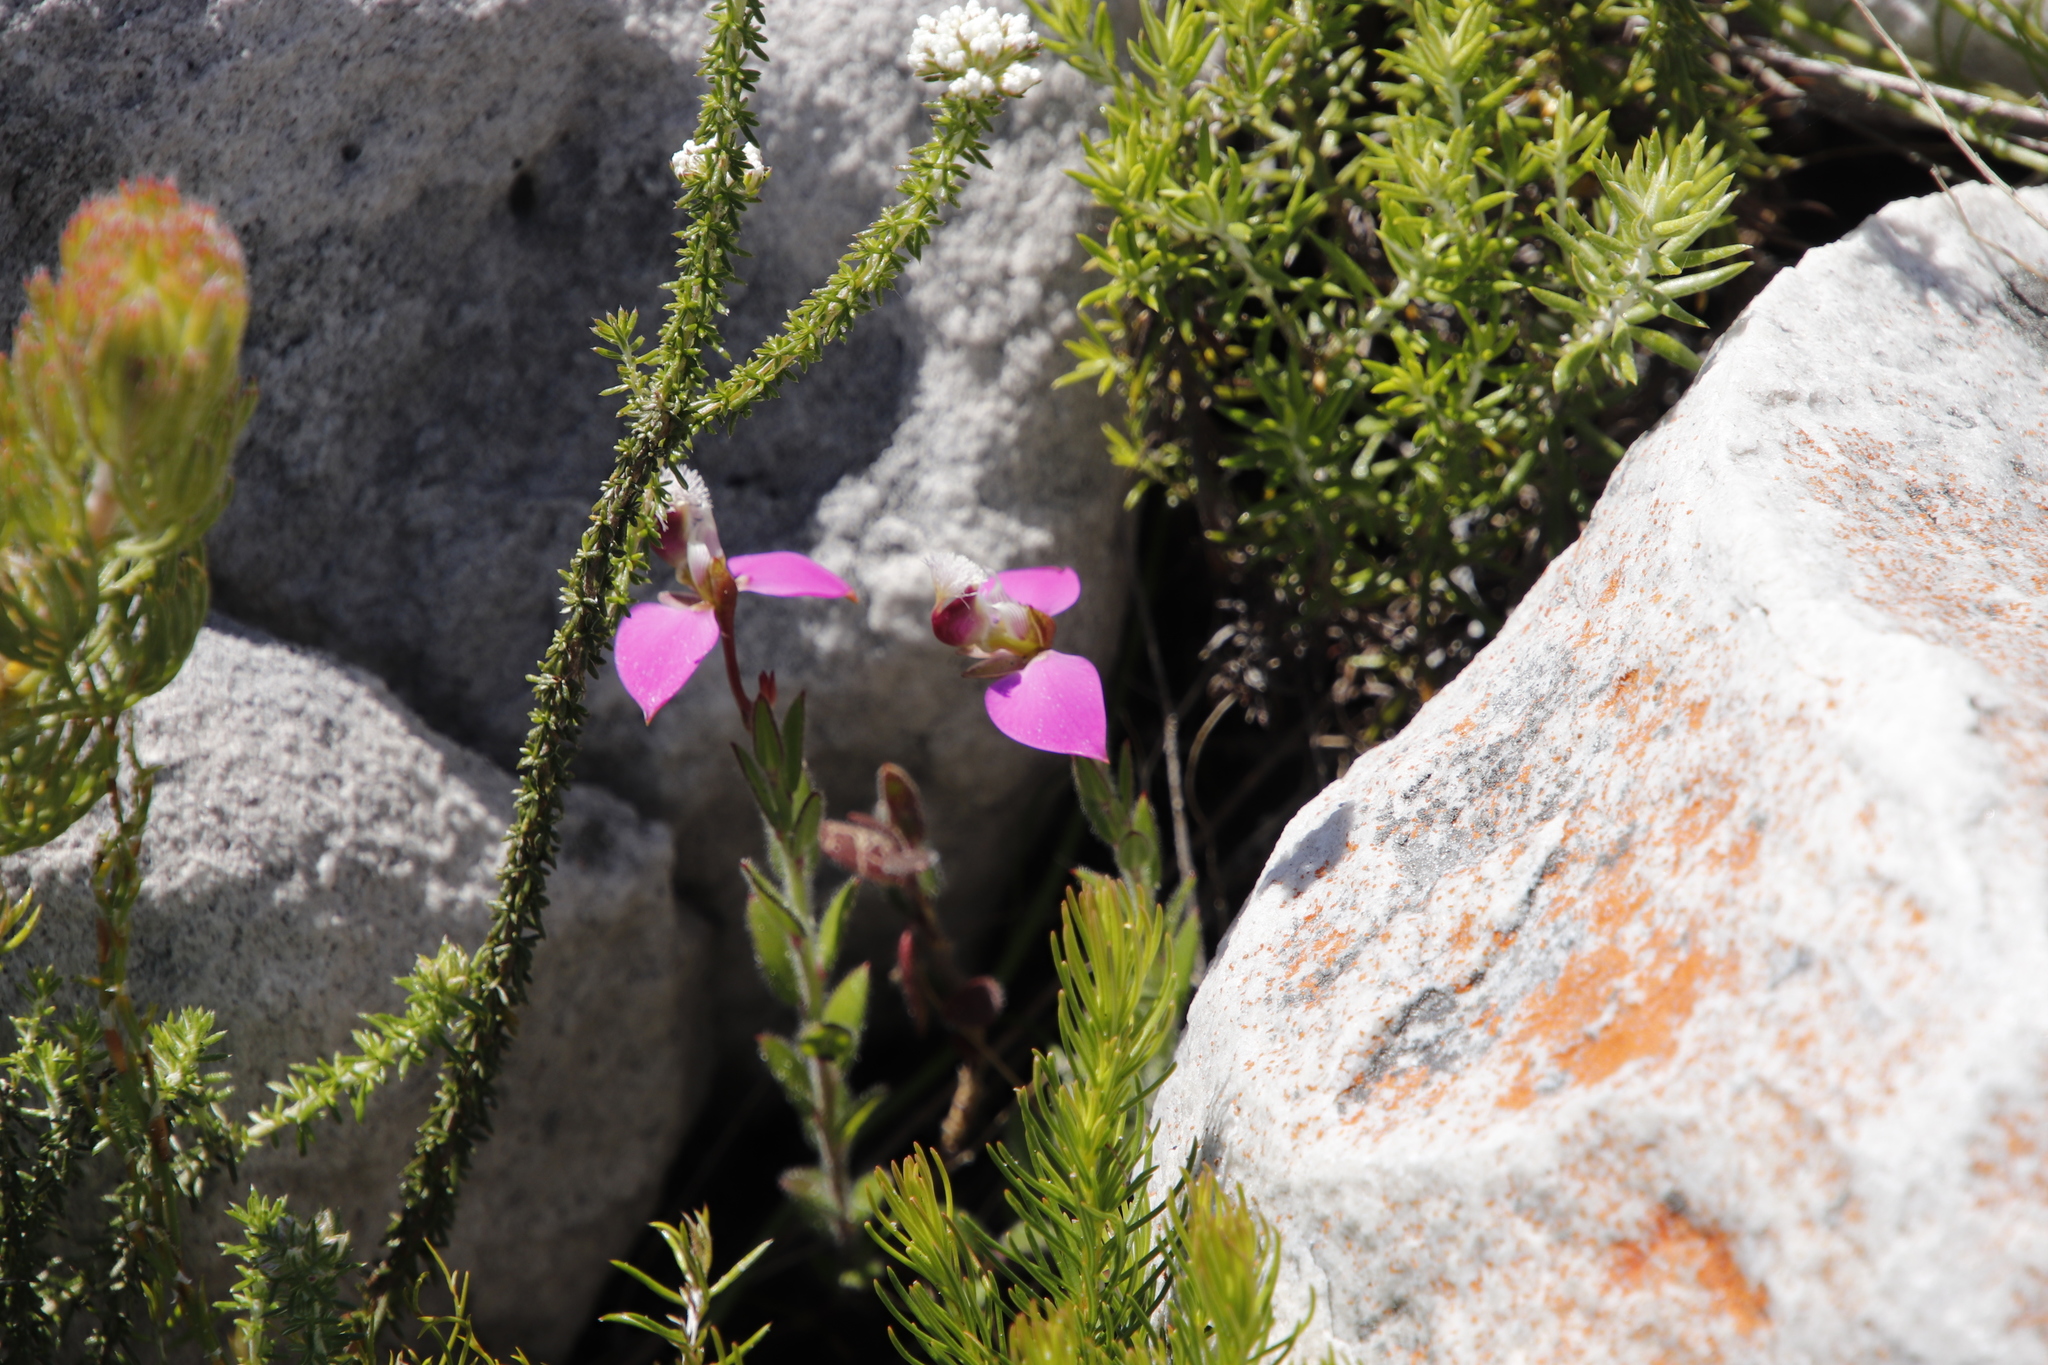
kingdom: Plantae
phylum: Tracheophyta
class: Magnoliopsida
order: Fabales
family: Polygalaceae
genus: Polygala
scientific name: Polygala bracteolata
